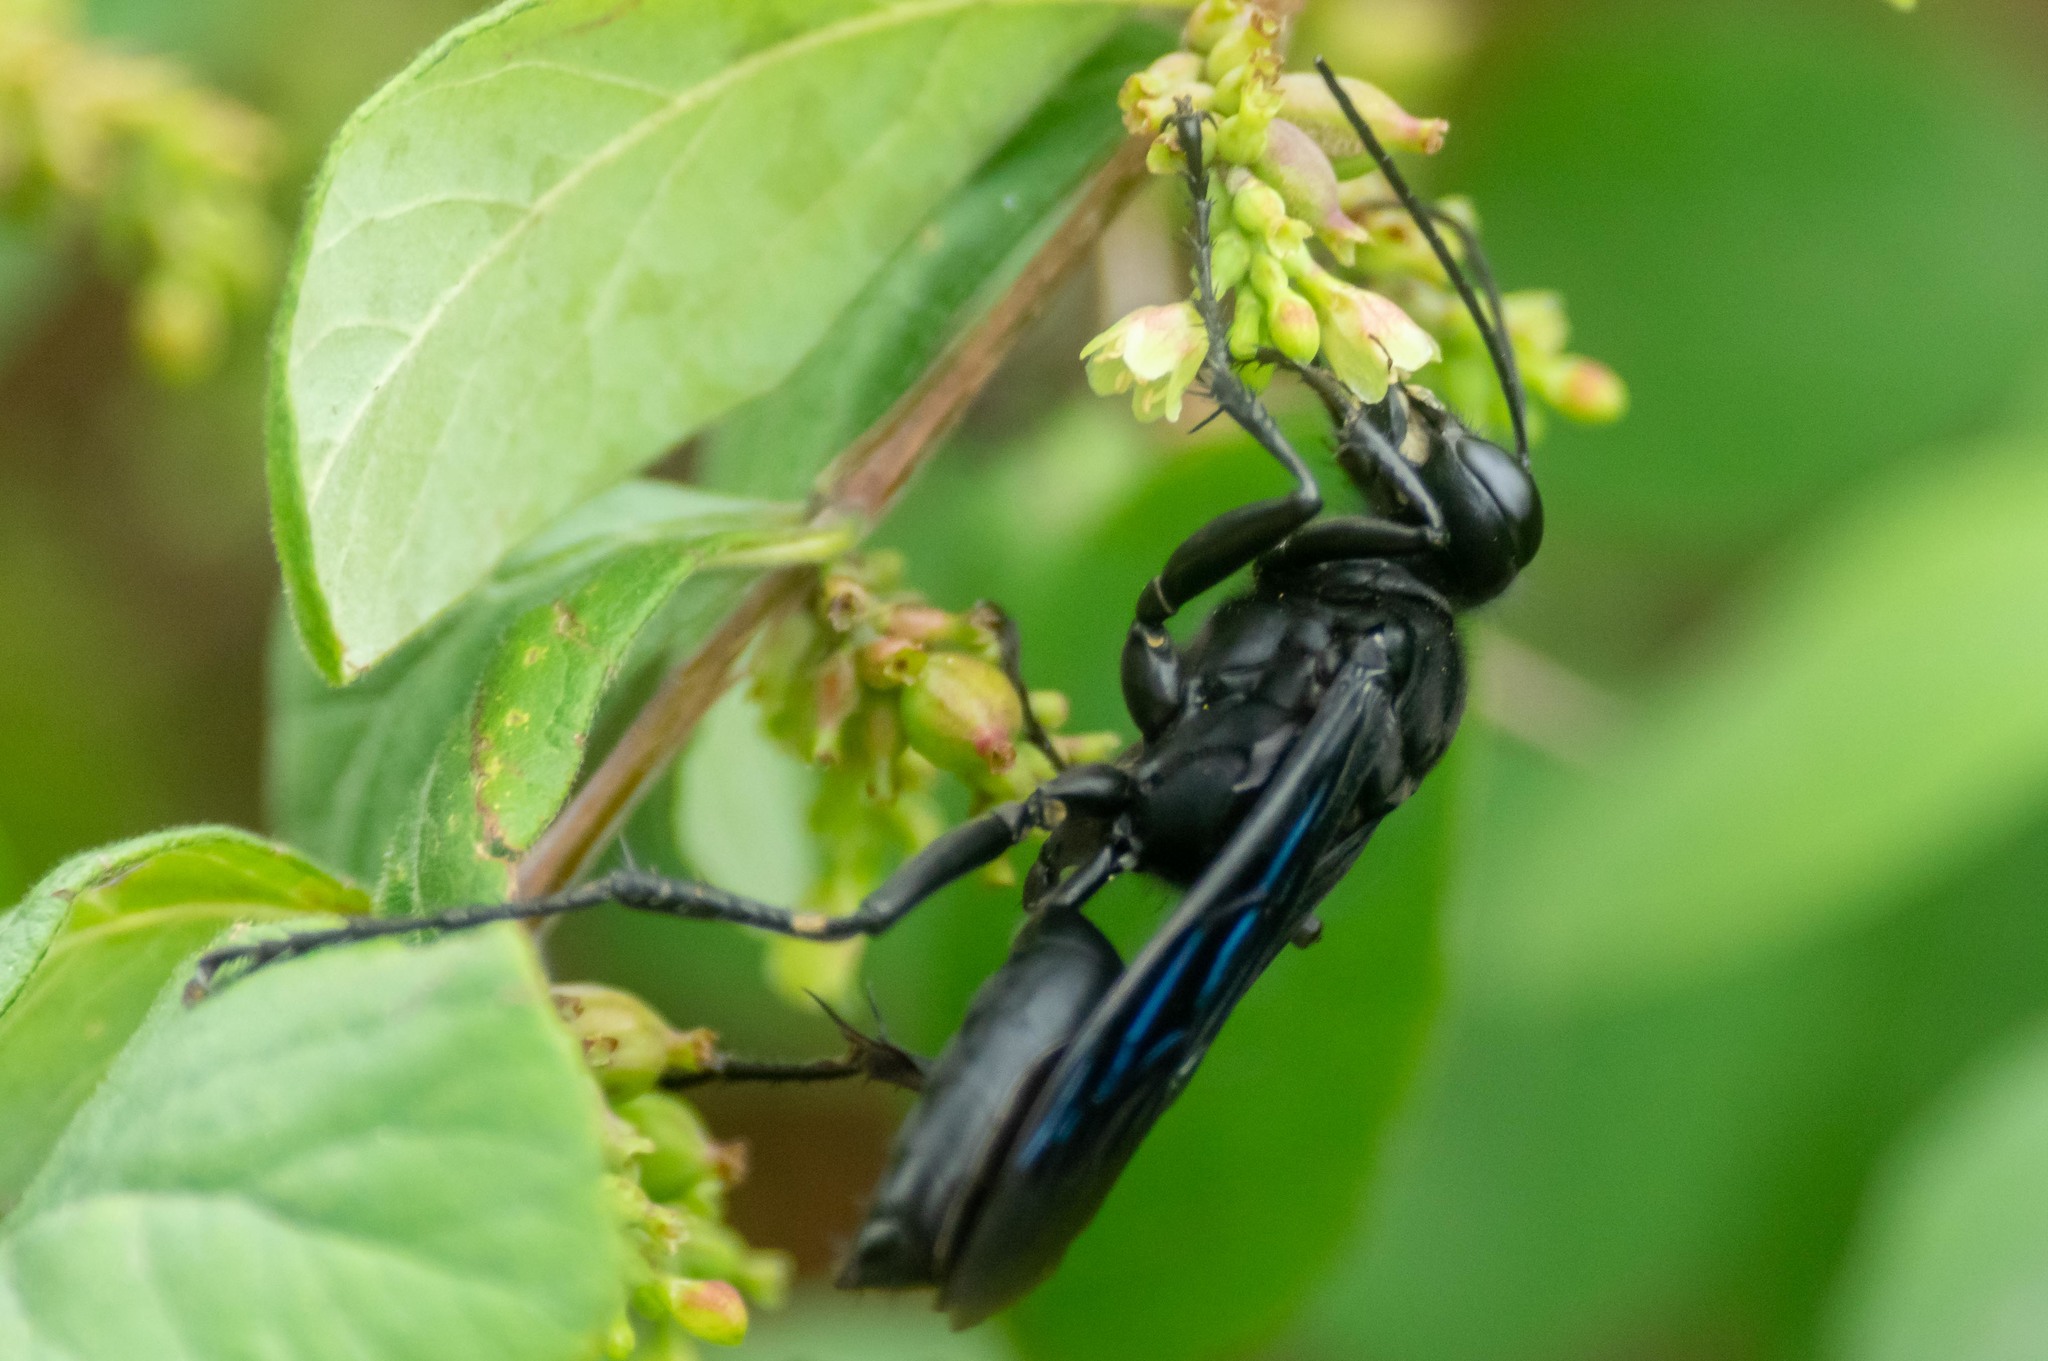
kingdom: Animalia
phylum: Arthropoda
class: Insecta
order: Hymenoptera
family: Sphecidae
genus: Sphex
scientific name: Sphex pensylvanicus
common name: Great black digger wasp
